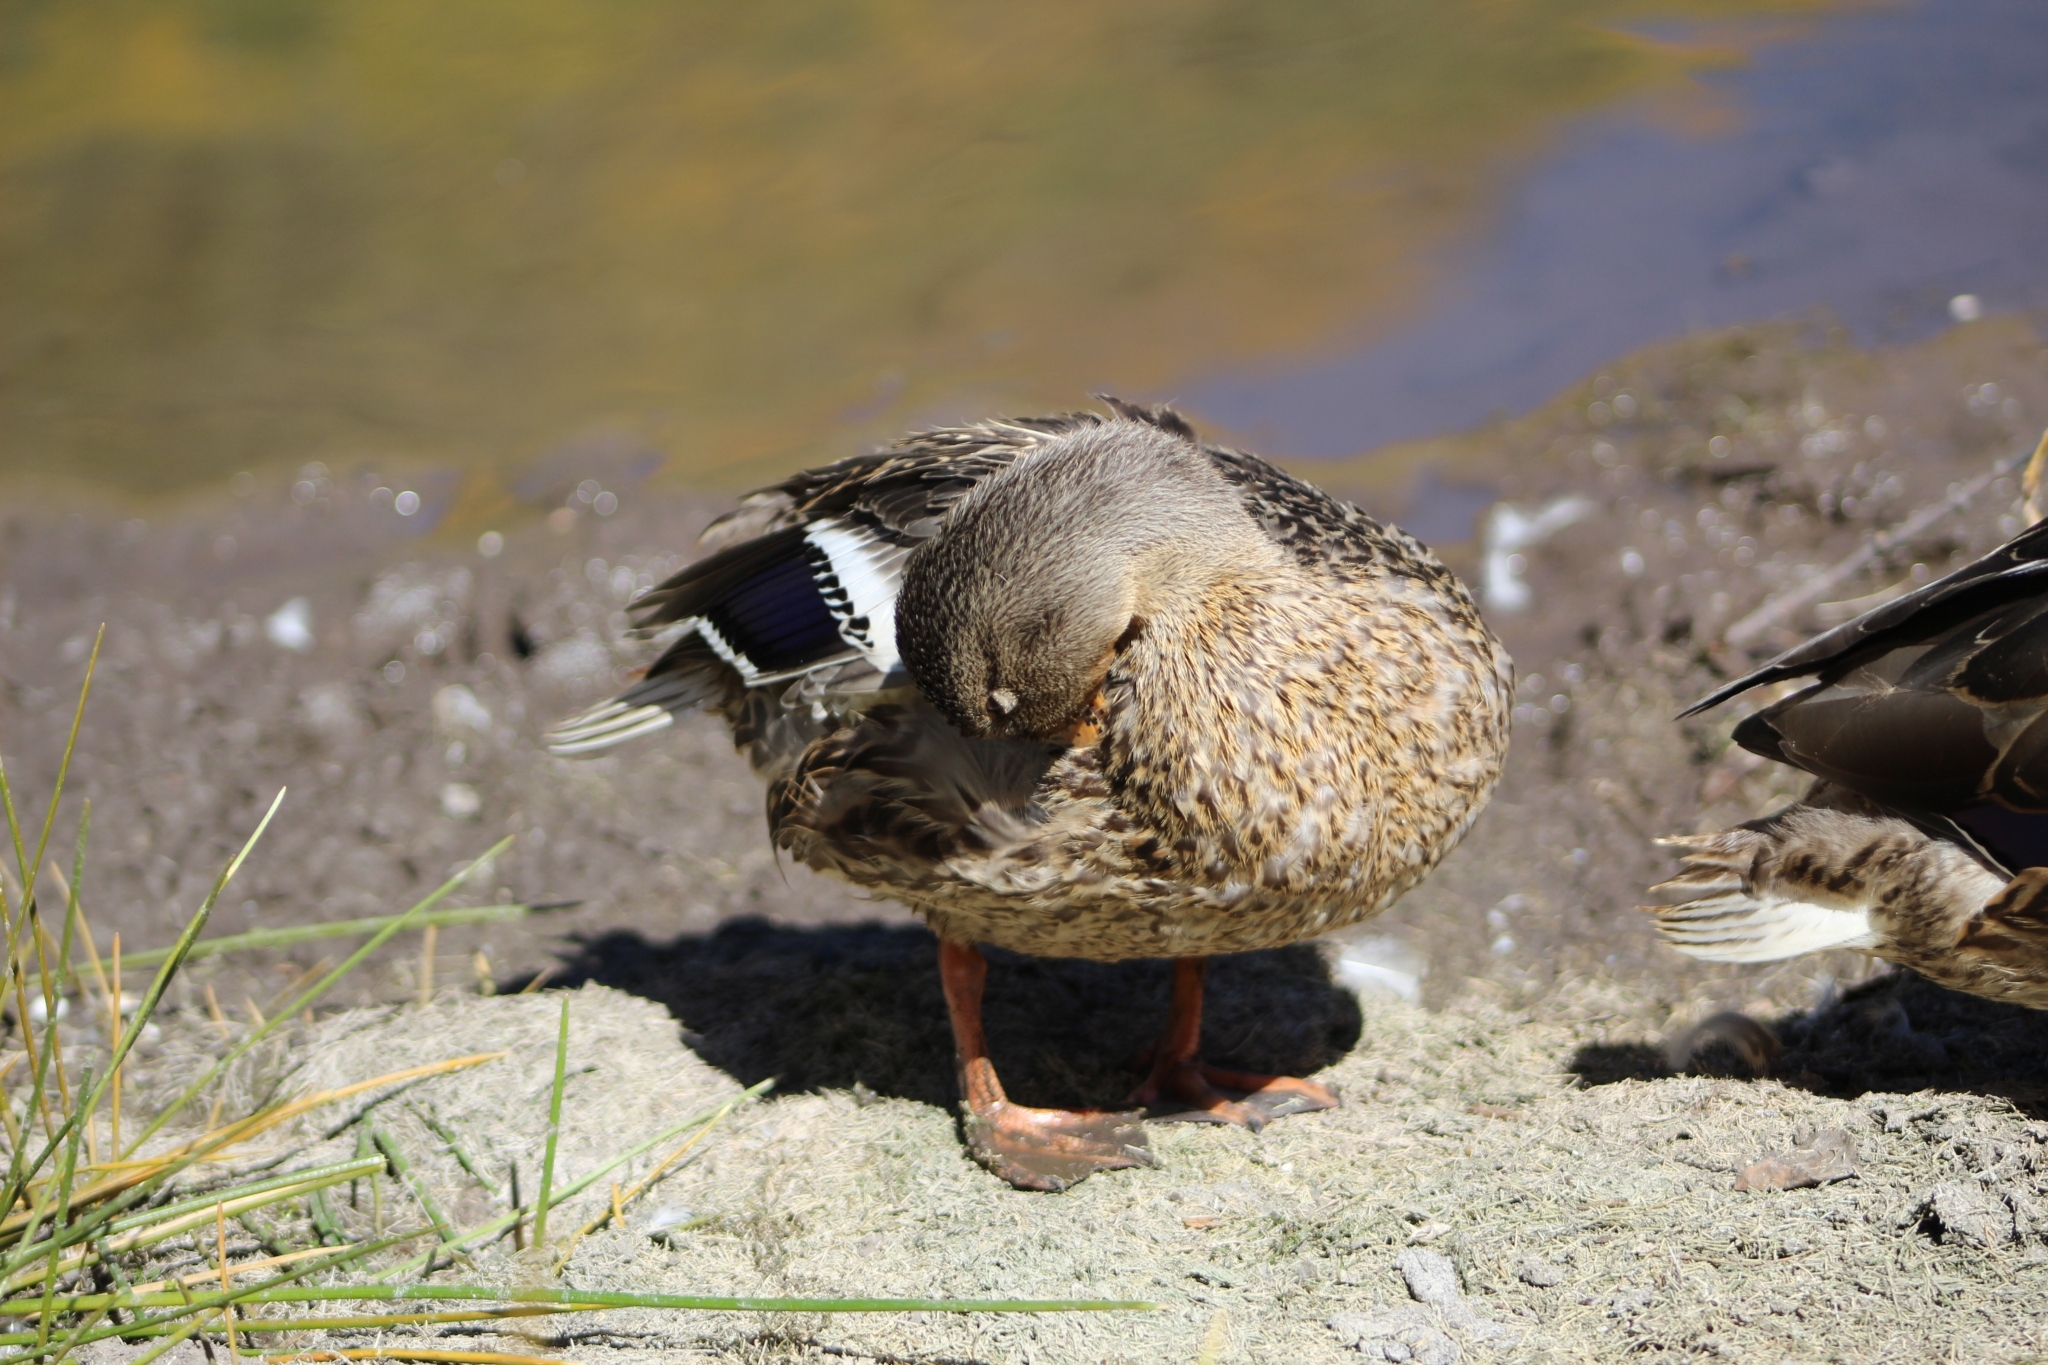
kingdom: Animalia
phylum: Chordata
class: Aves
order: Anseriformes
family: Anatidae
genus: Anas
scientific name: Anas platyrhynchos
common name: Mallard
